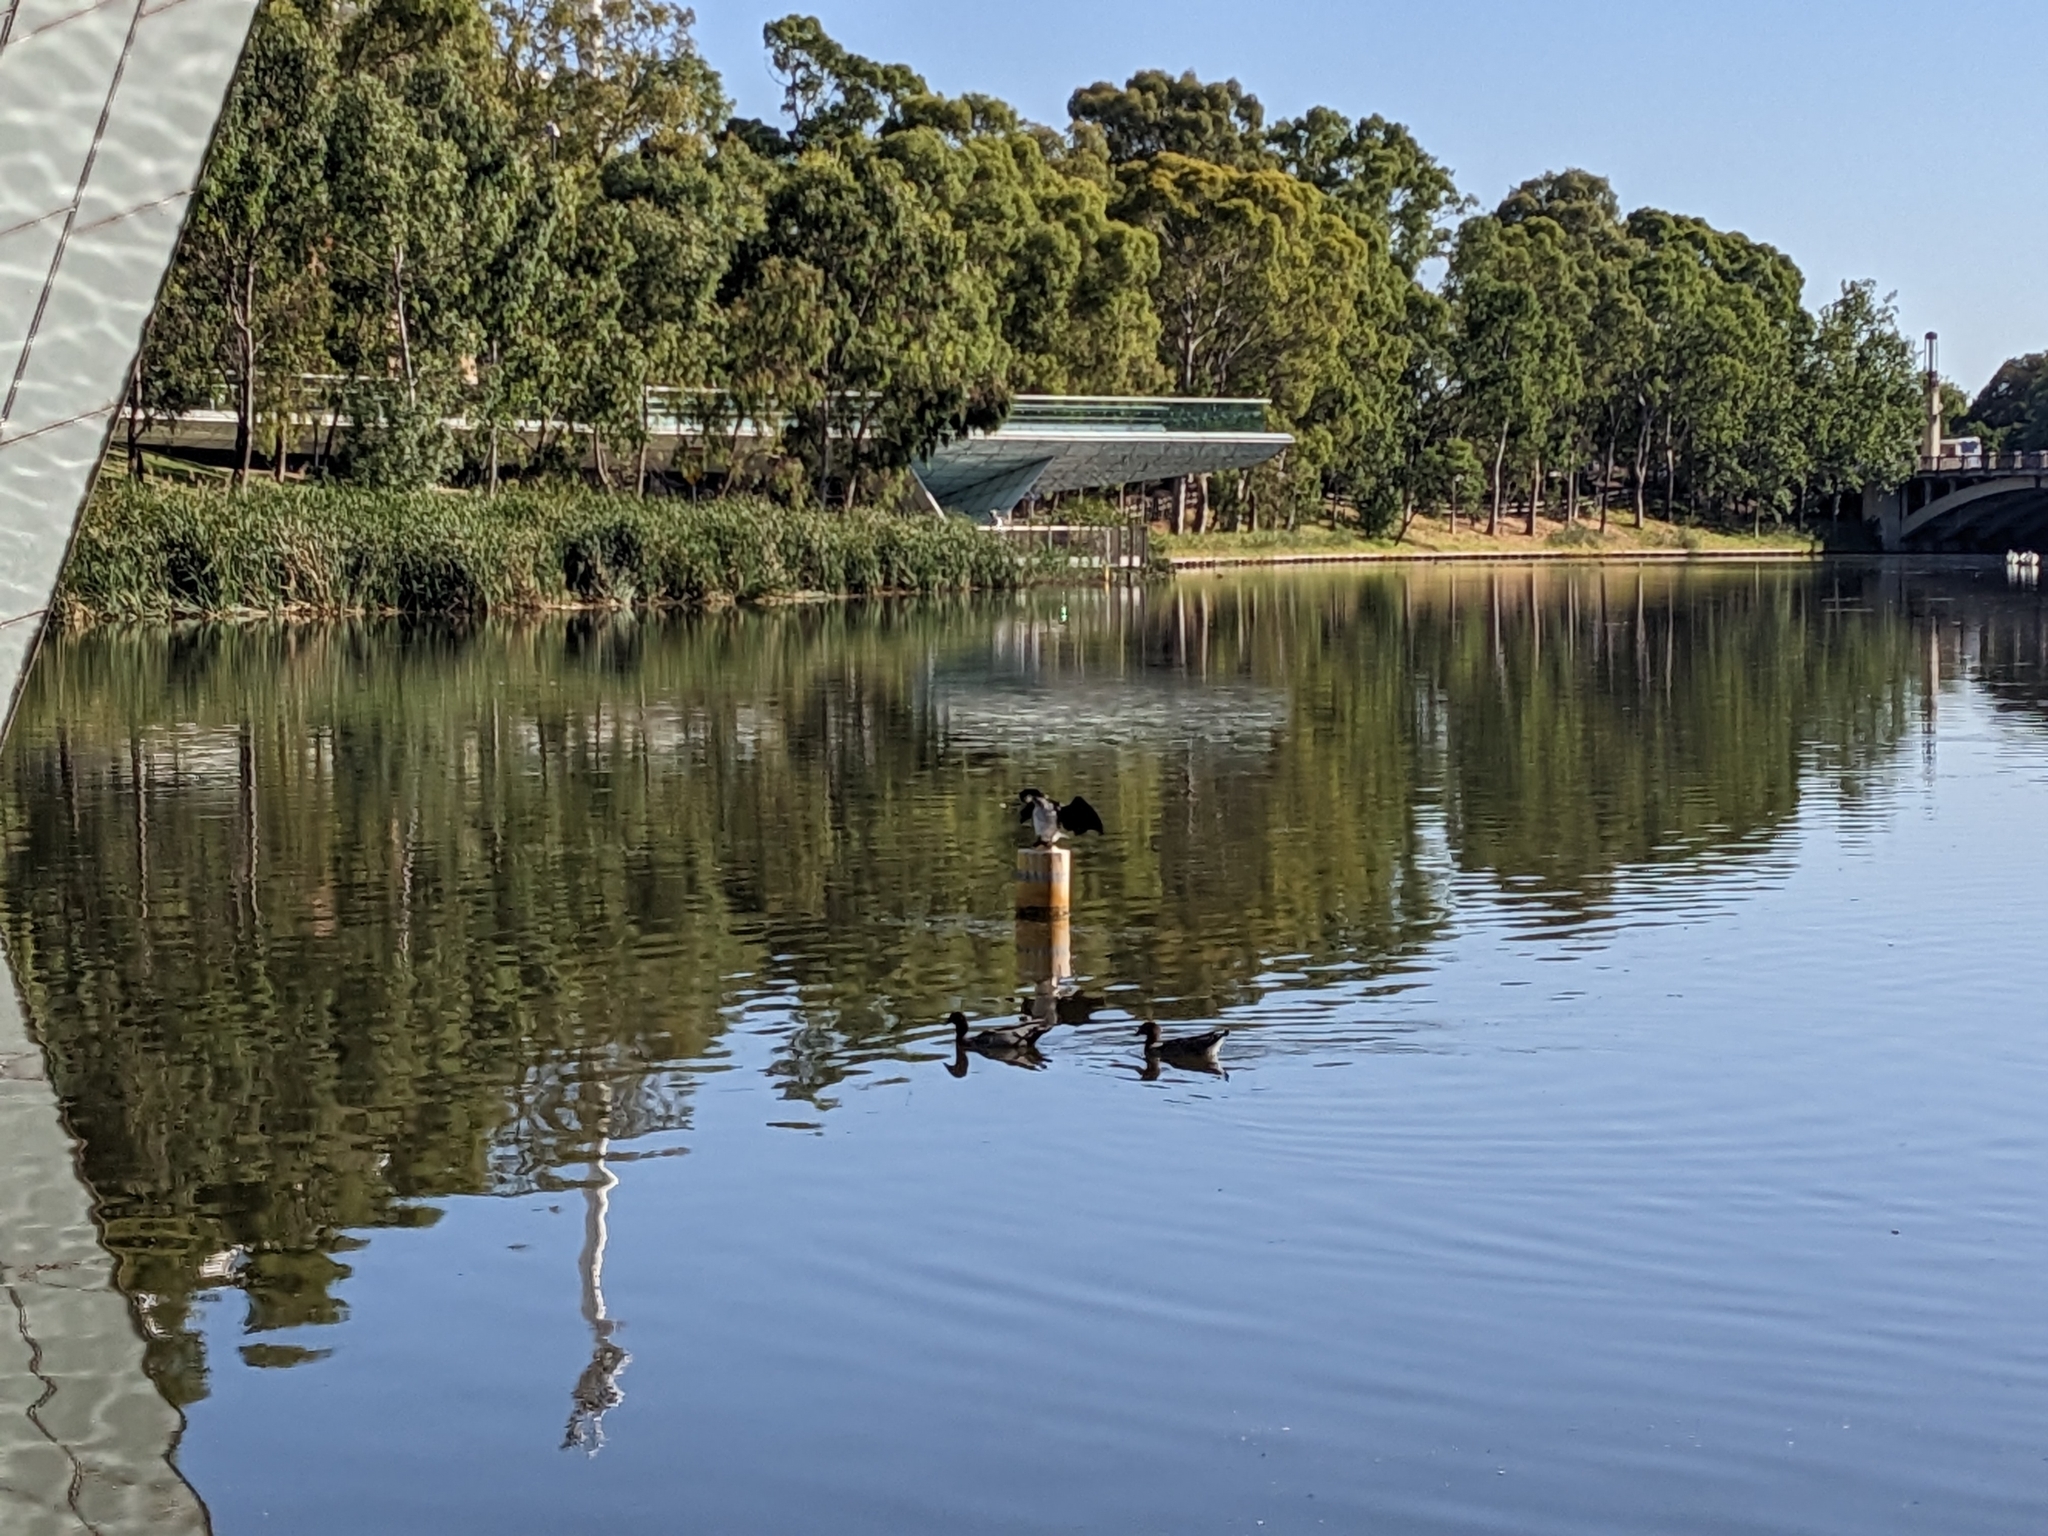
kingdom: Animalia
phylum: Chordata
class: Aves
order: Suliformes
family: Phalacrocoracidae
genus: Microcarbo
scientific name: Microcarbo melanoleucos
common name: Little pied cormorant
